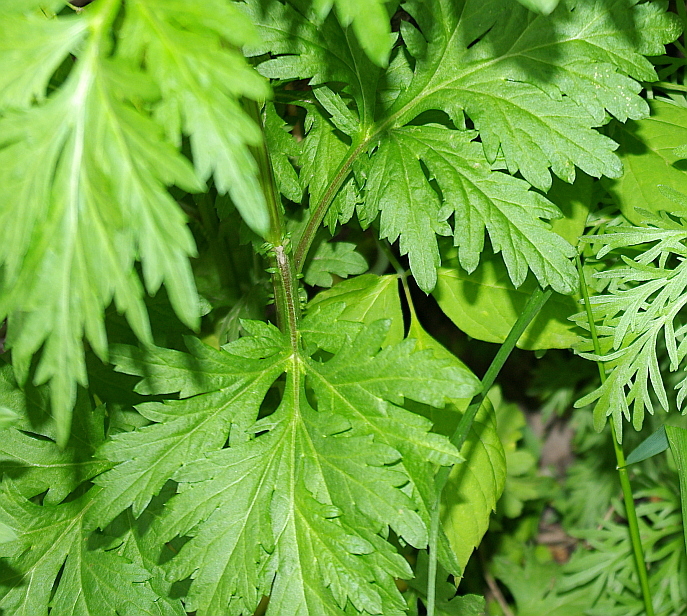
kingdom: Plantae
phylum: Tracheophyta
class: Magnoliopsida
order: Asterales
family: Asteraceae
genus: Artemisia
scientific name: Artemisia vulgaris
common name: Mugwort
